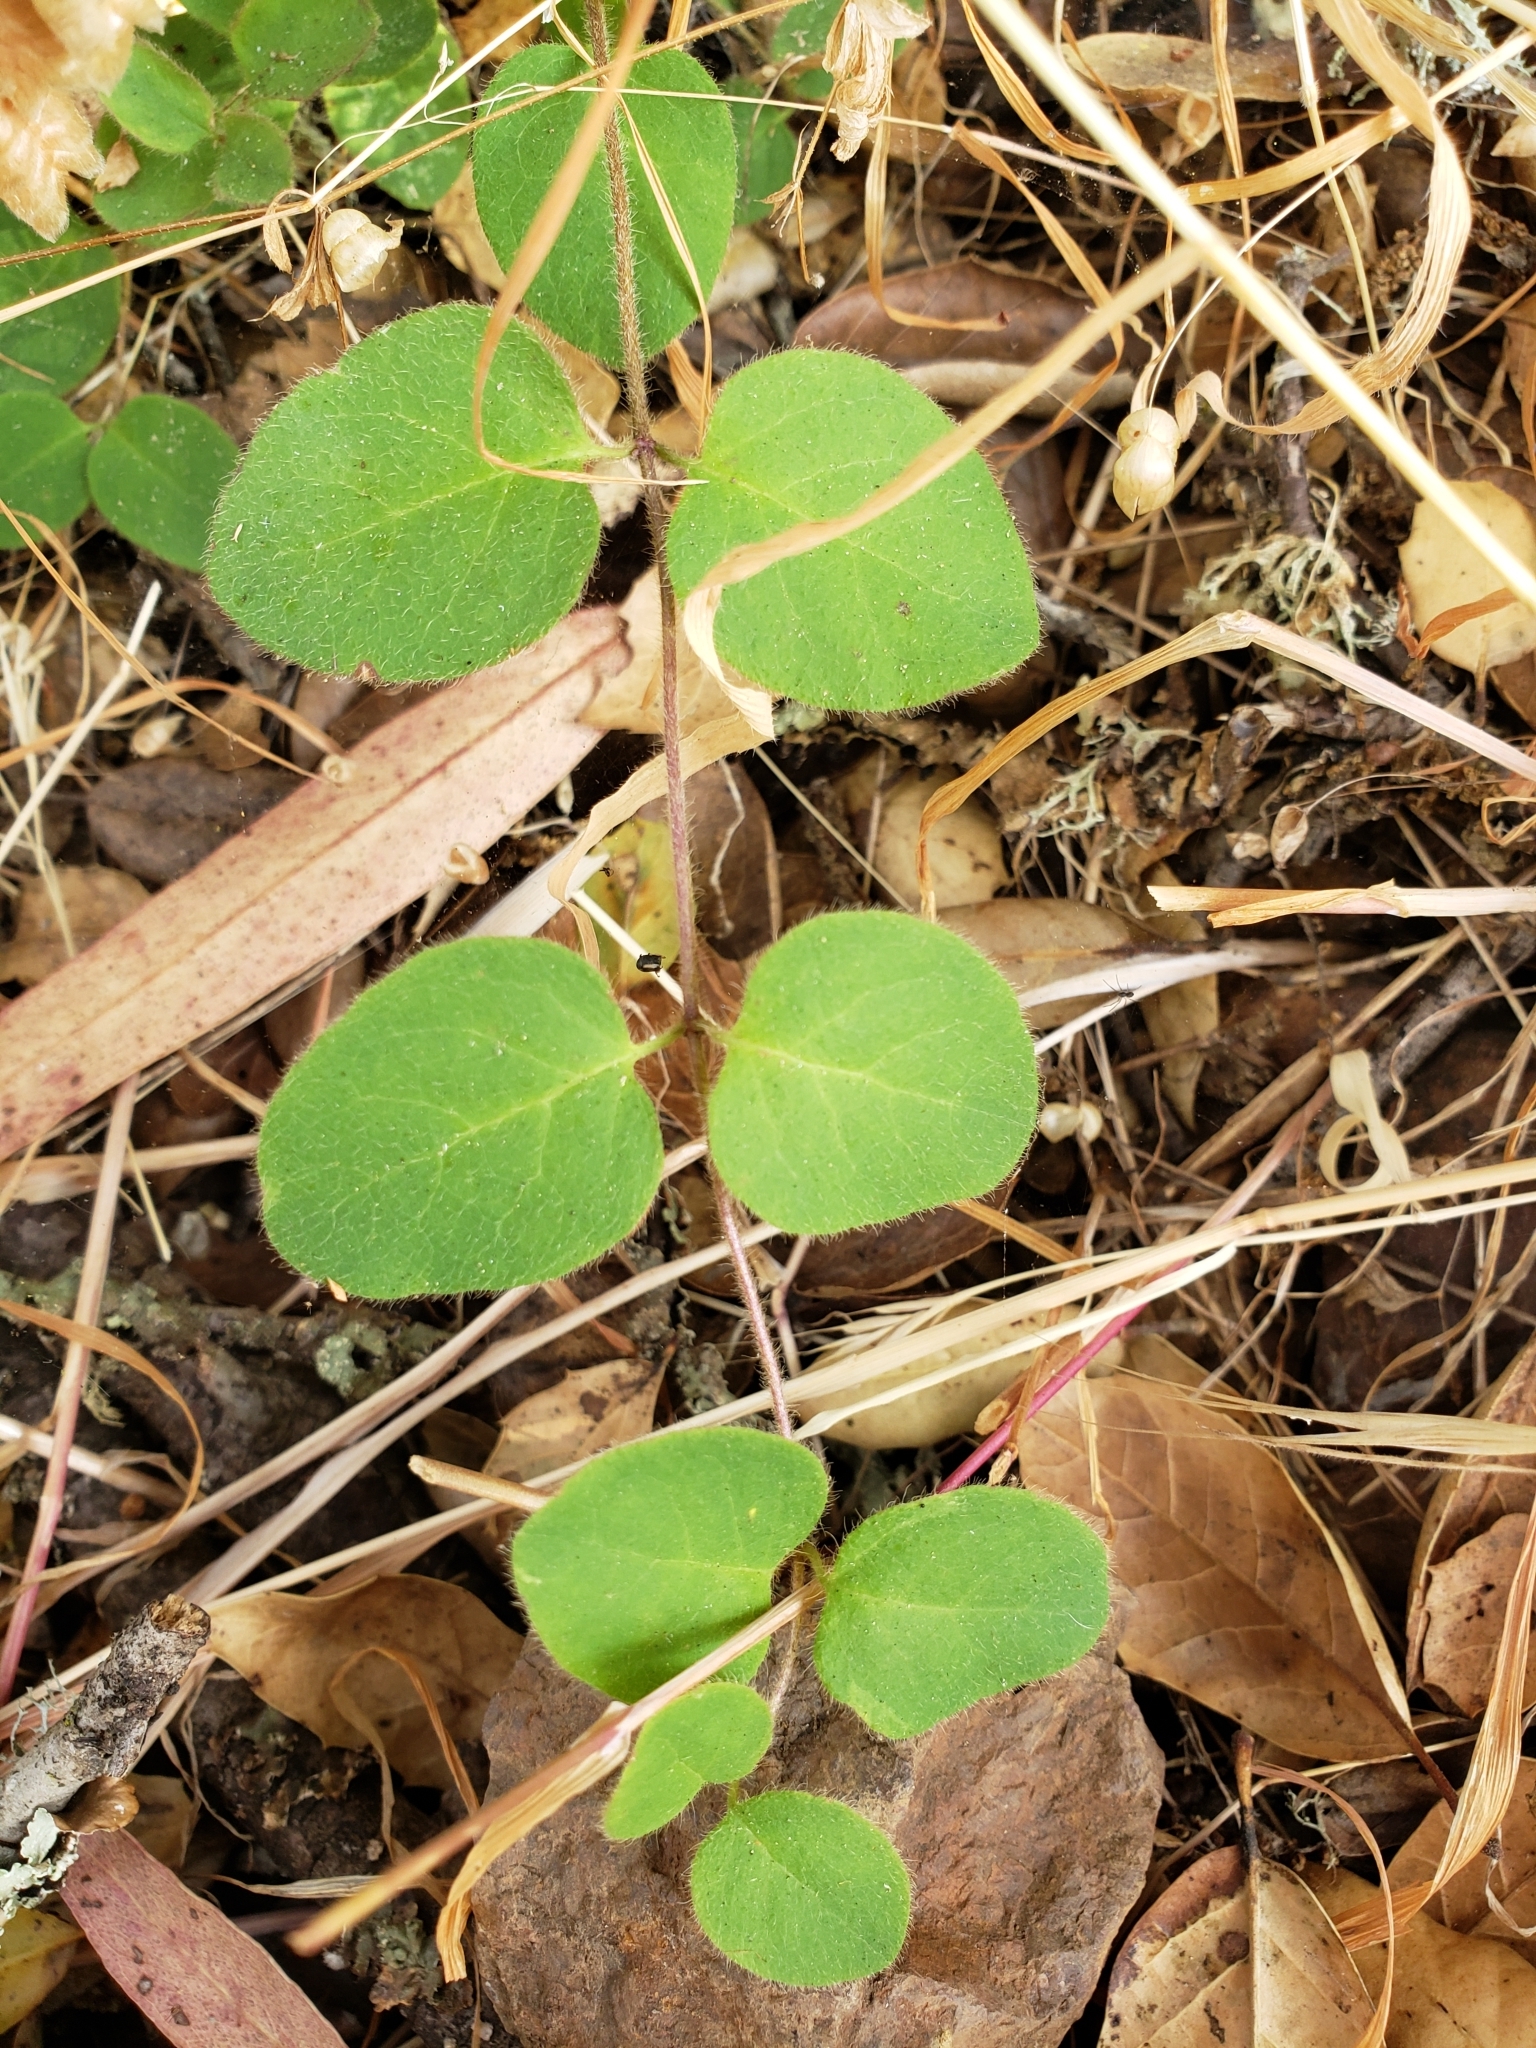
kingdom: Plantae
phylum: Tracheophyta
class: Magnoliopsida
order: Dipsacales
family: Caprifoliaceae
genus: Symphoricarpos
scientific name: Symphoricarpos mollis
